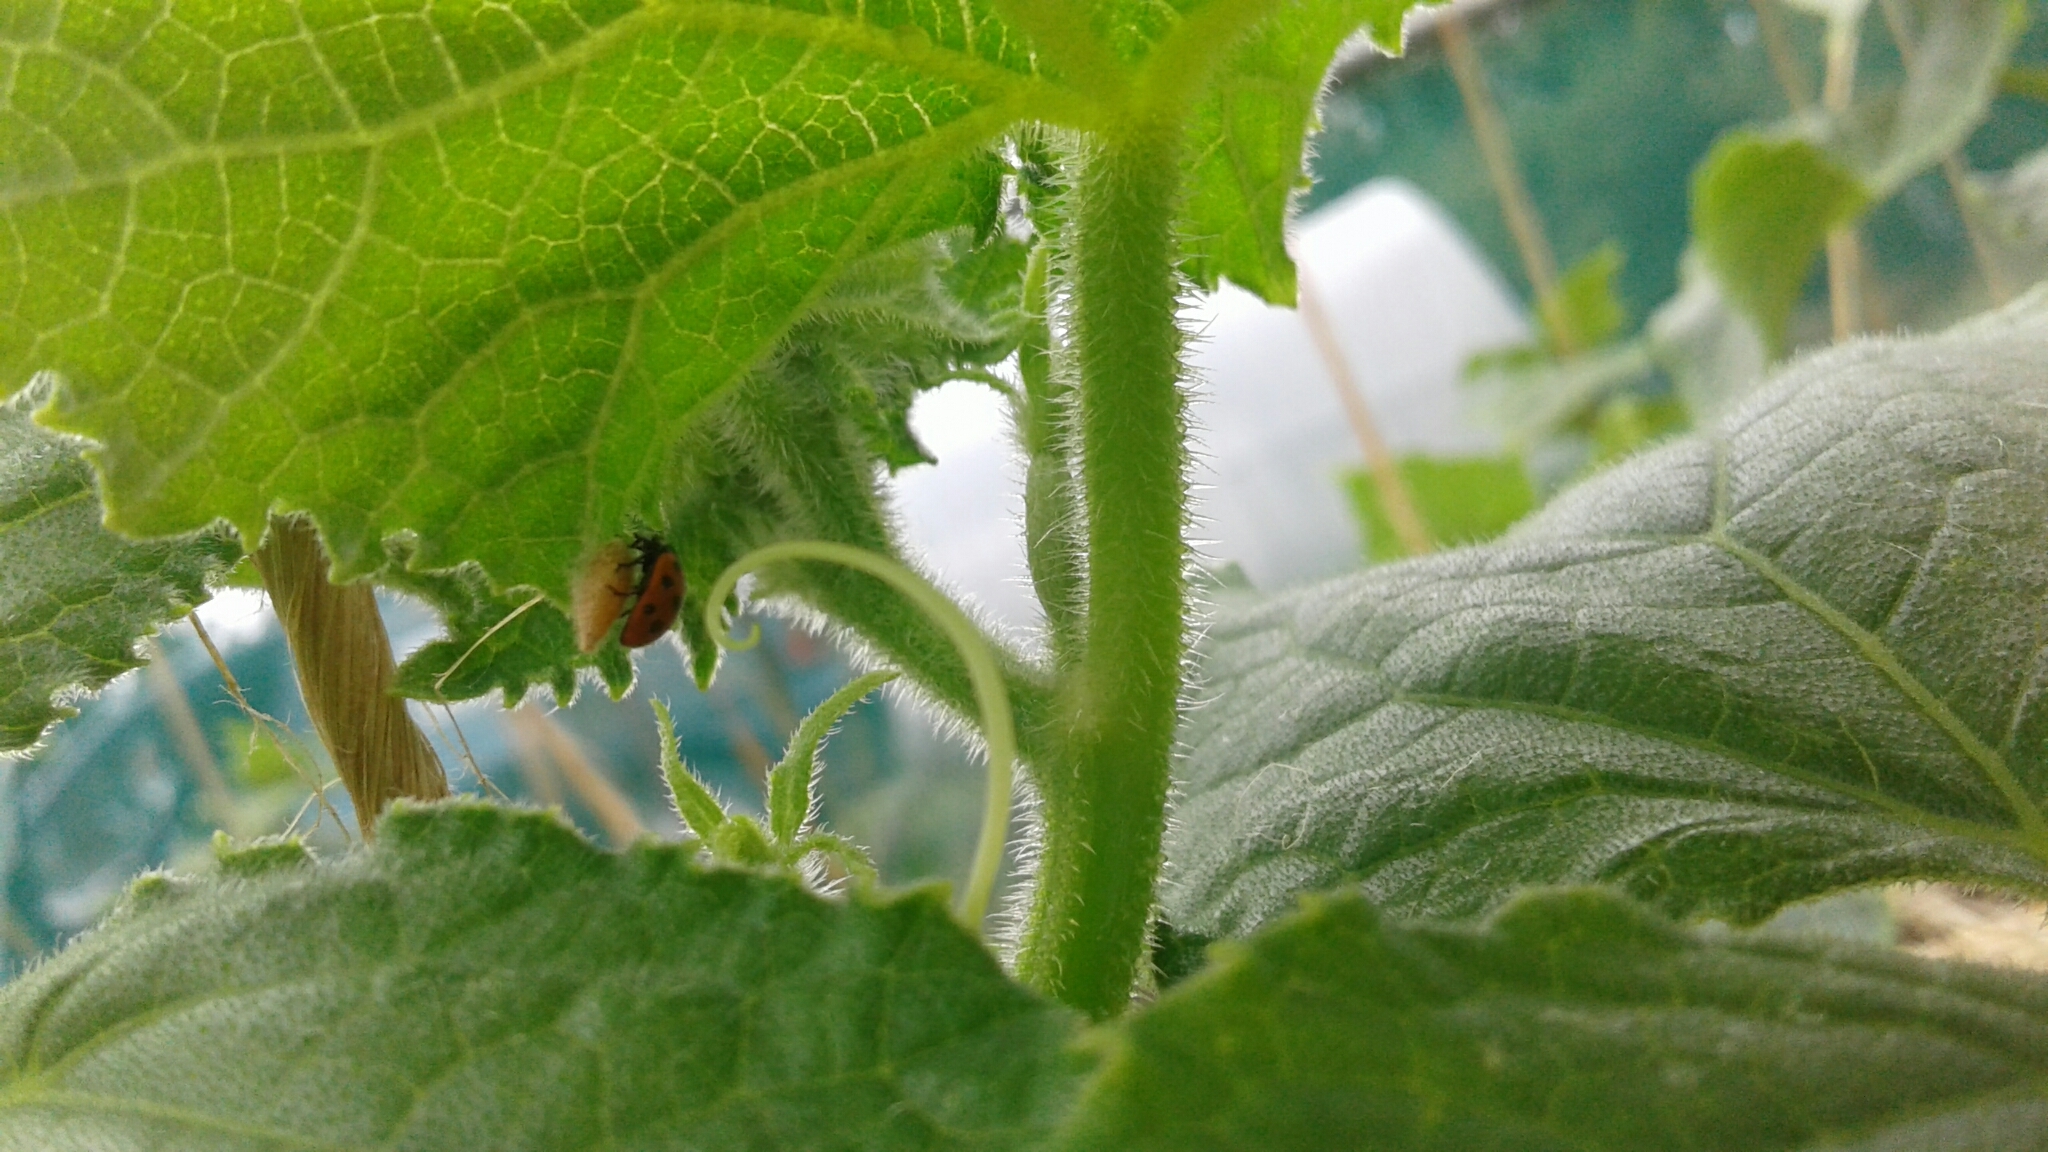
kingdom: Animalia
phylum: Arthropoda
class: Insecta
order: Coleoptera
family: Coccinellidae
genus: Coccinella
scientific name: Coccinella undecimpunctata
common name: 11-spot ladybird
